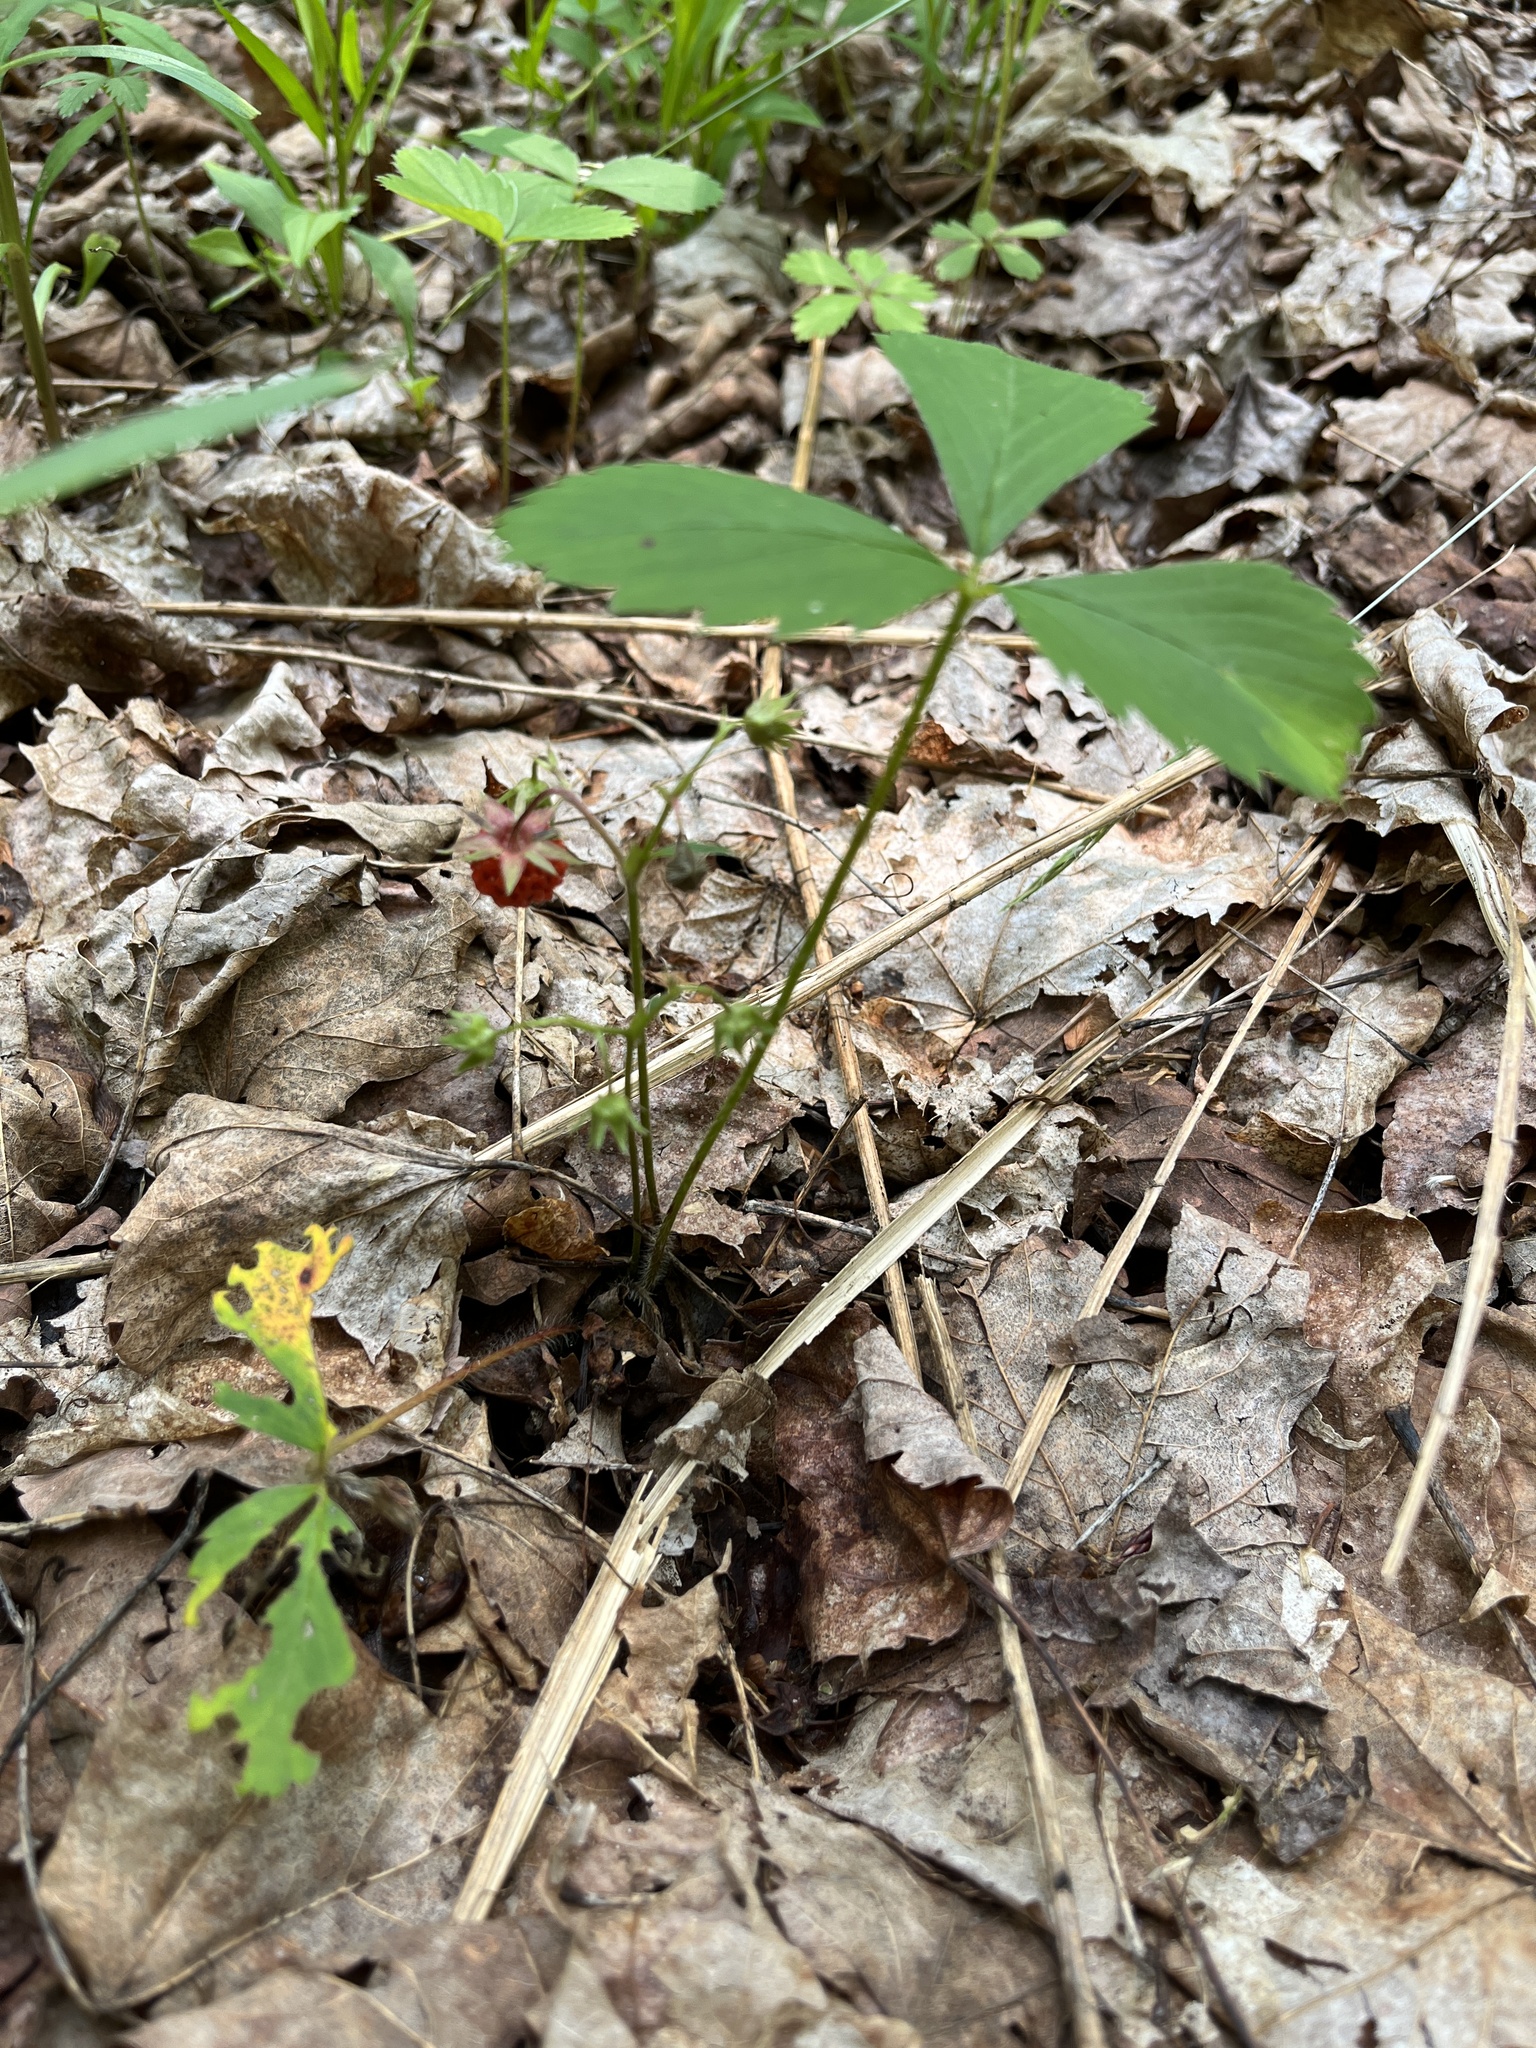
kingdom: Plantae
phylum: Tracheophyta
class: Magnoliopsida
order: Rosales
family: Rosaceae
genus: Fragaria
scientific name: Fragaria virginiana
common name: Thickleaved wild strawberry
